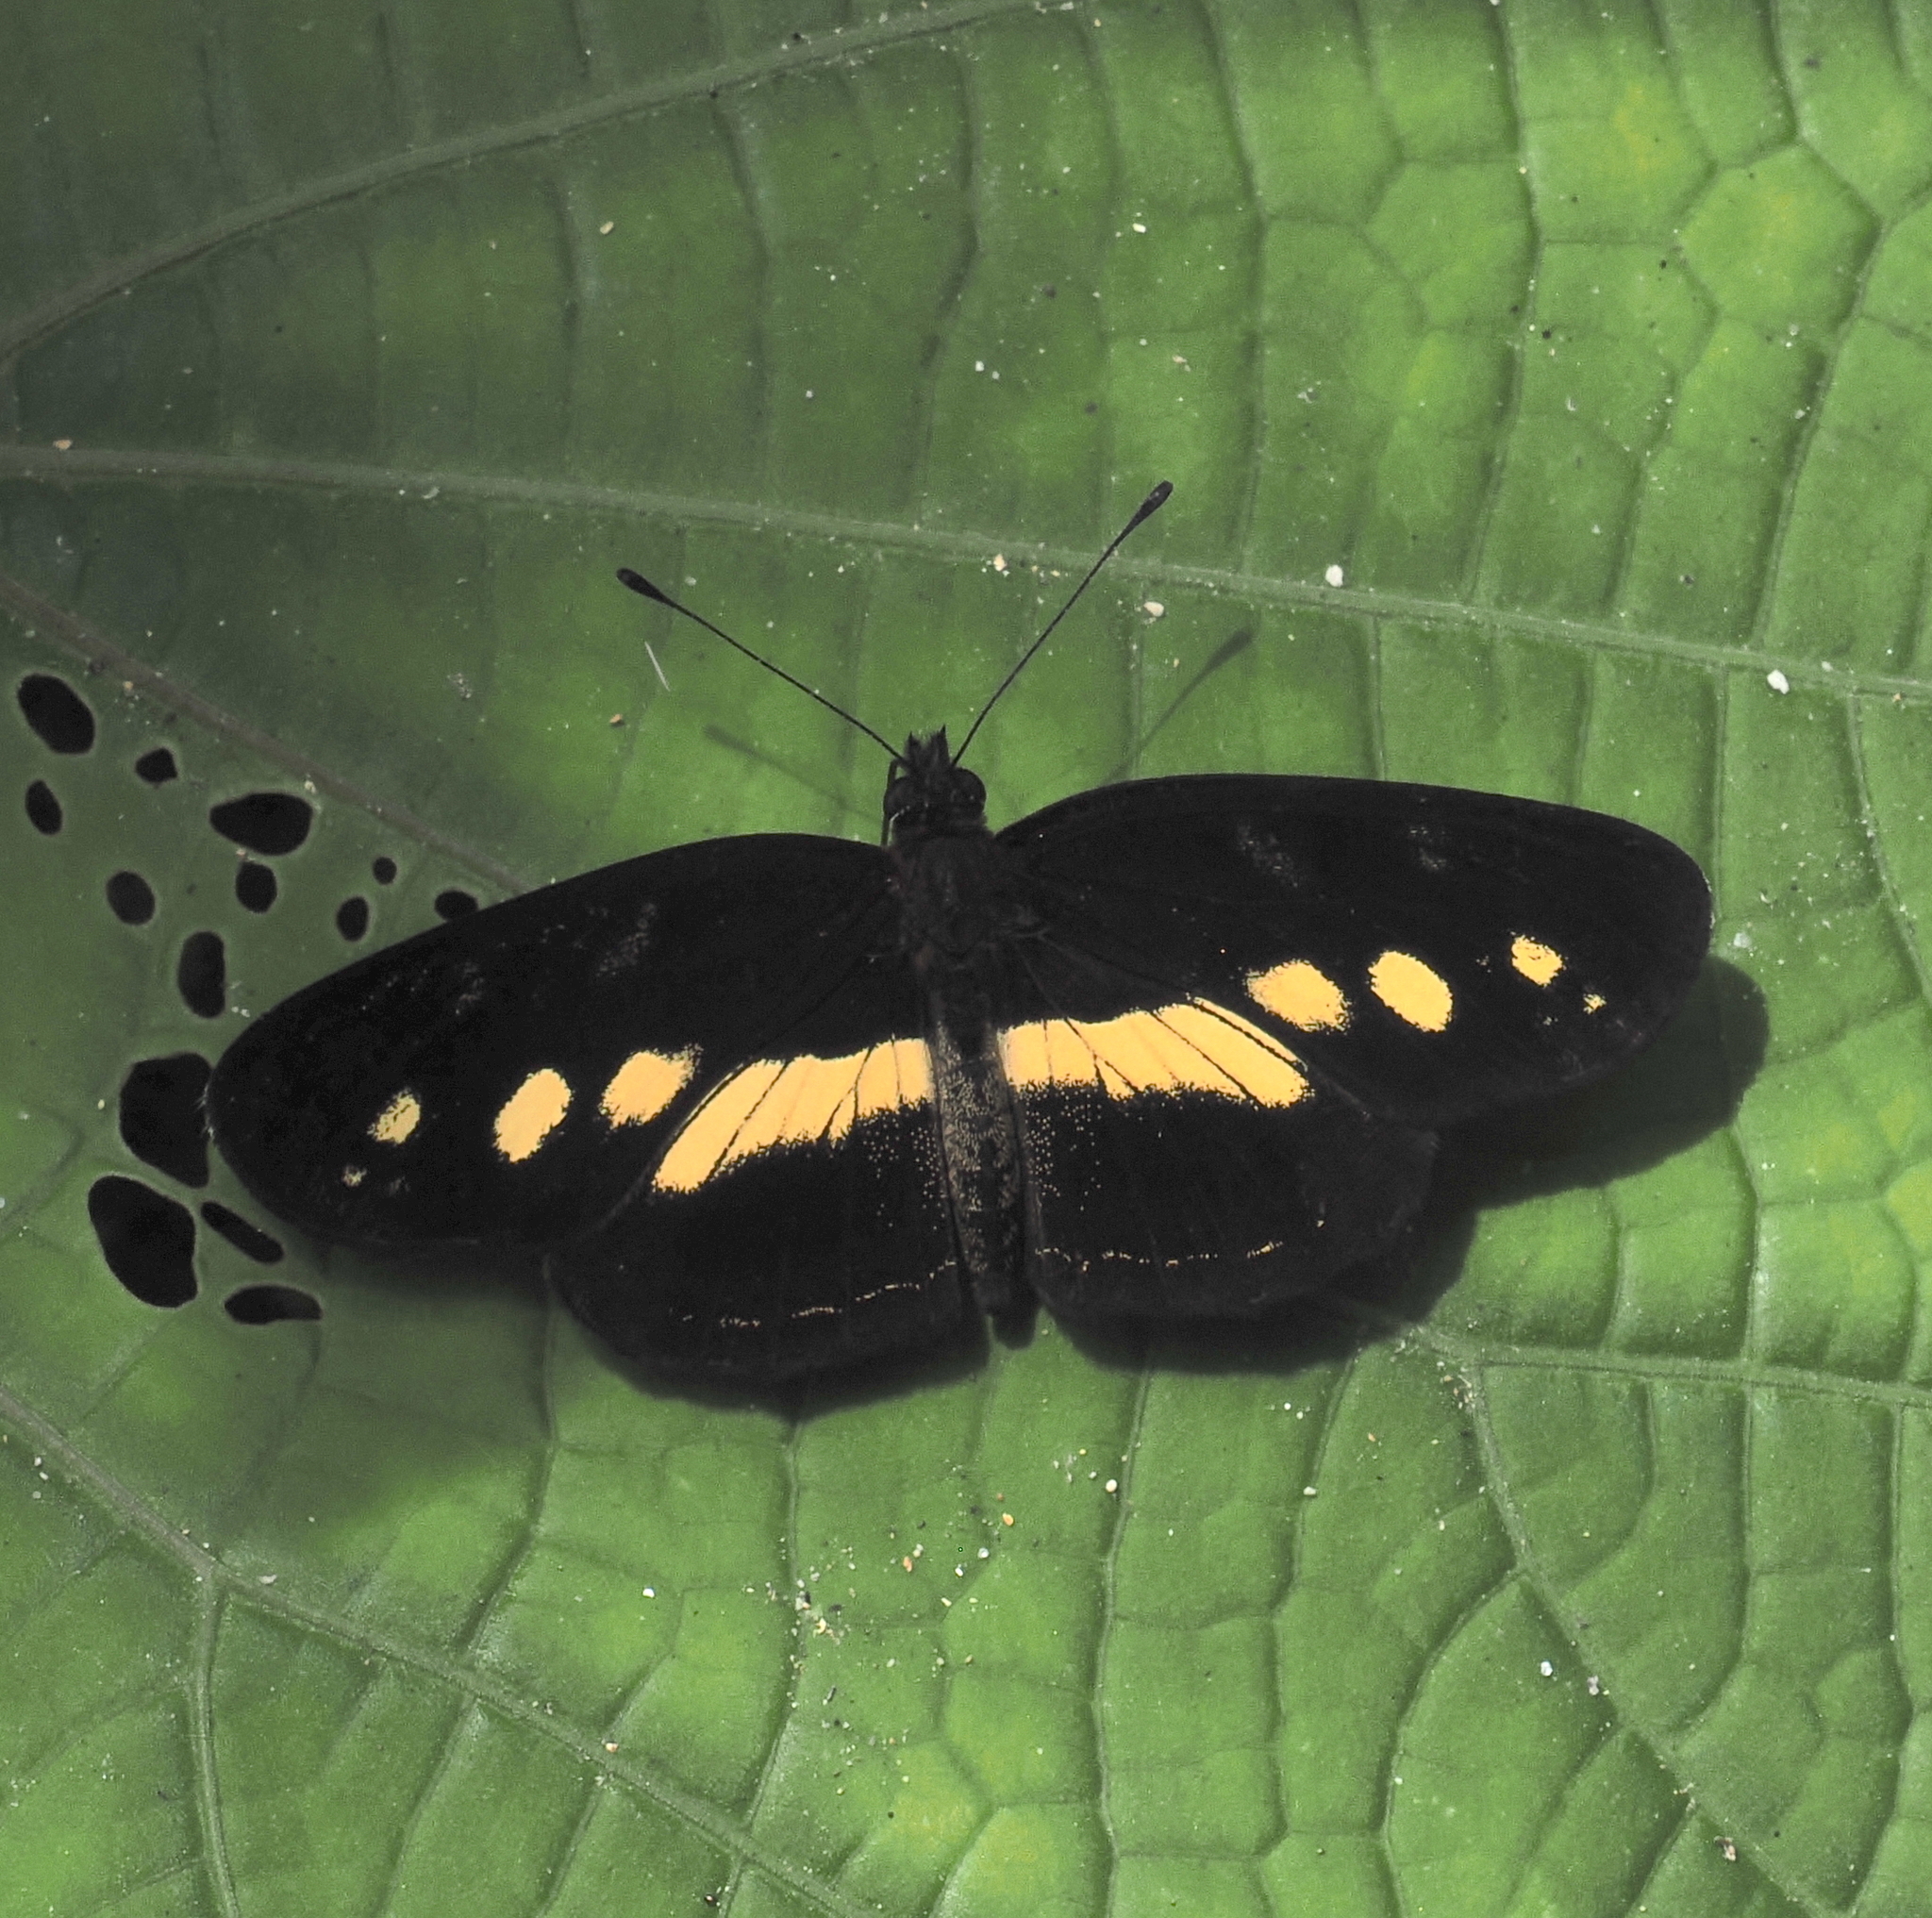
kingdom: Animalia
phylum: Arthropoda
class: Insecta
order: Lepidoptera
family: Nymphalidae
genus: Eresia
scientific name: Eresia polina
